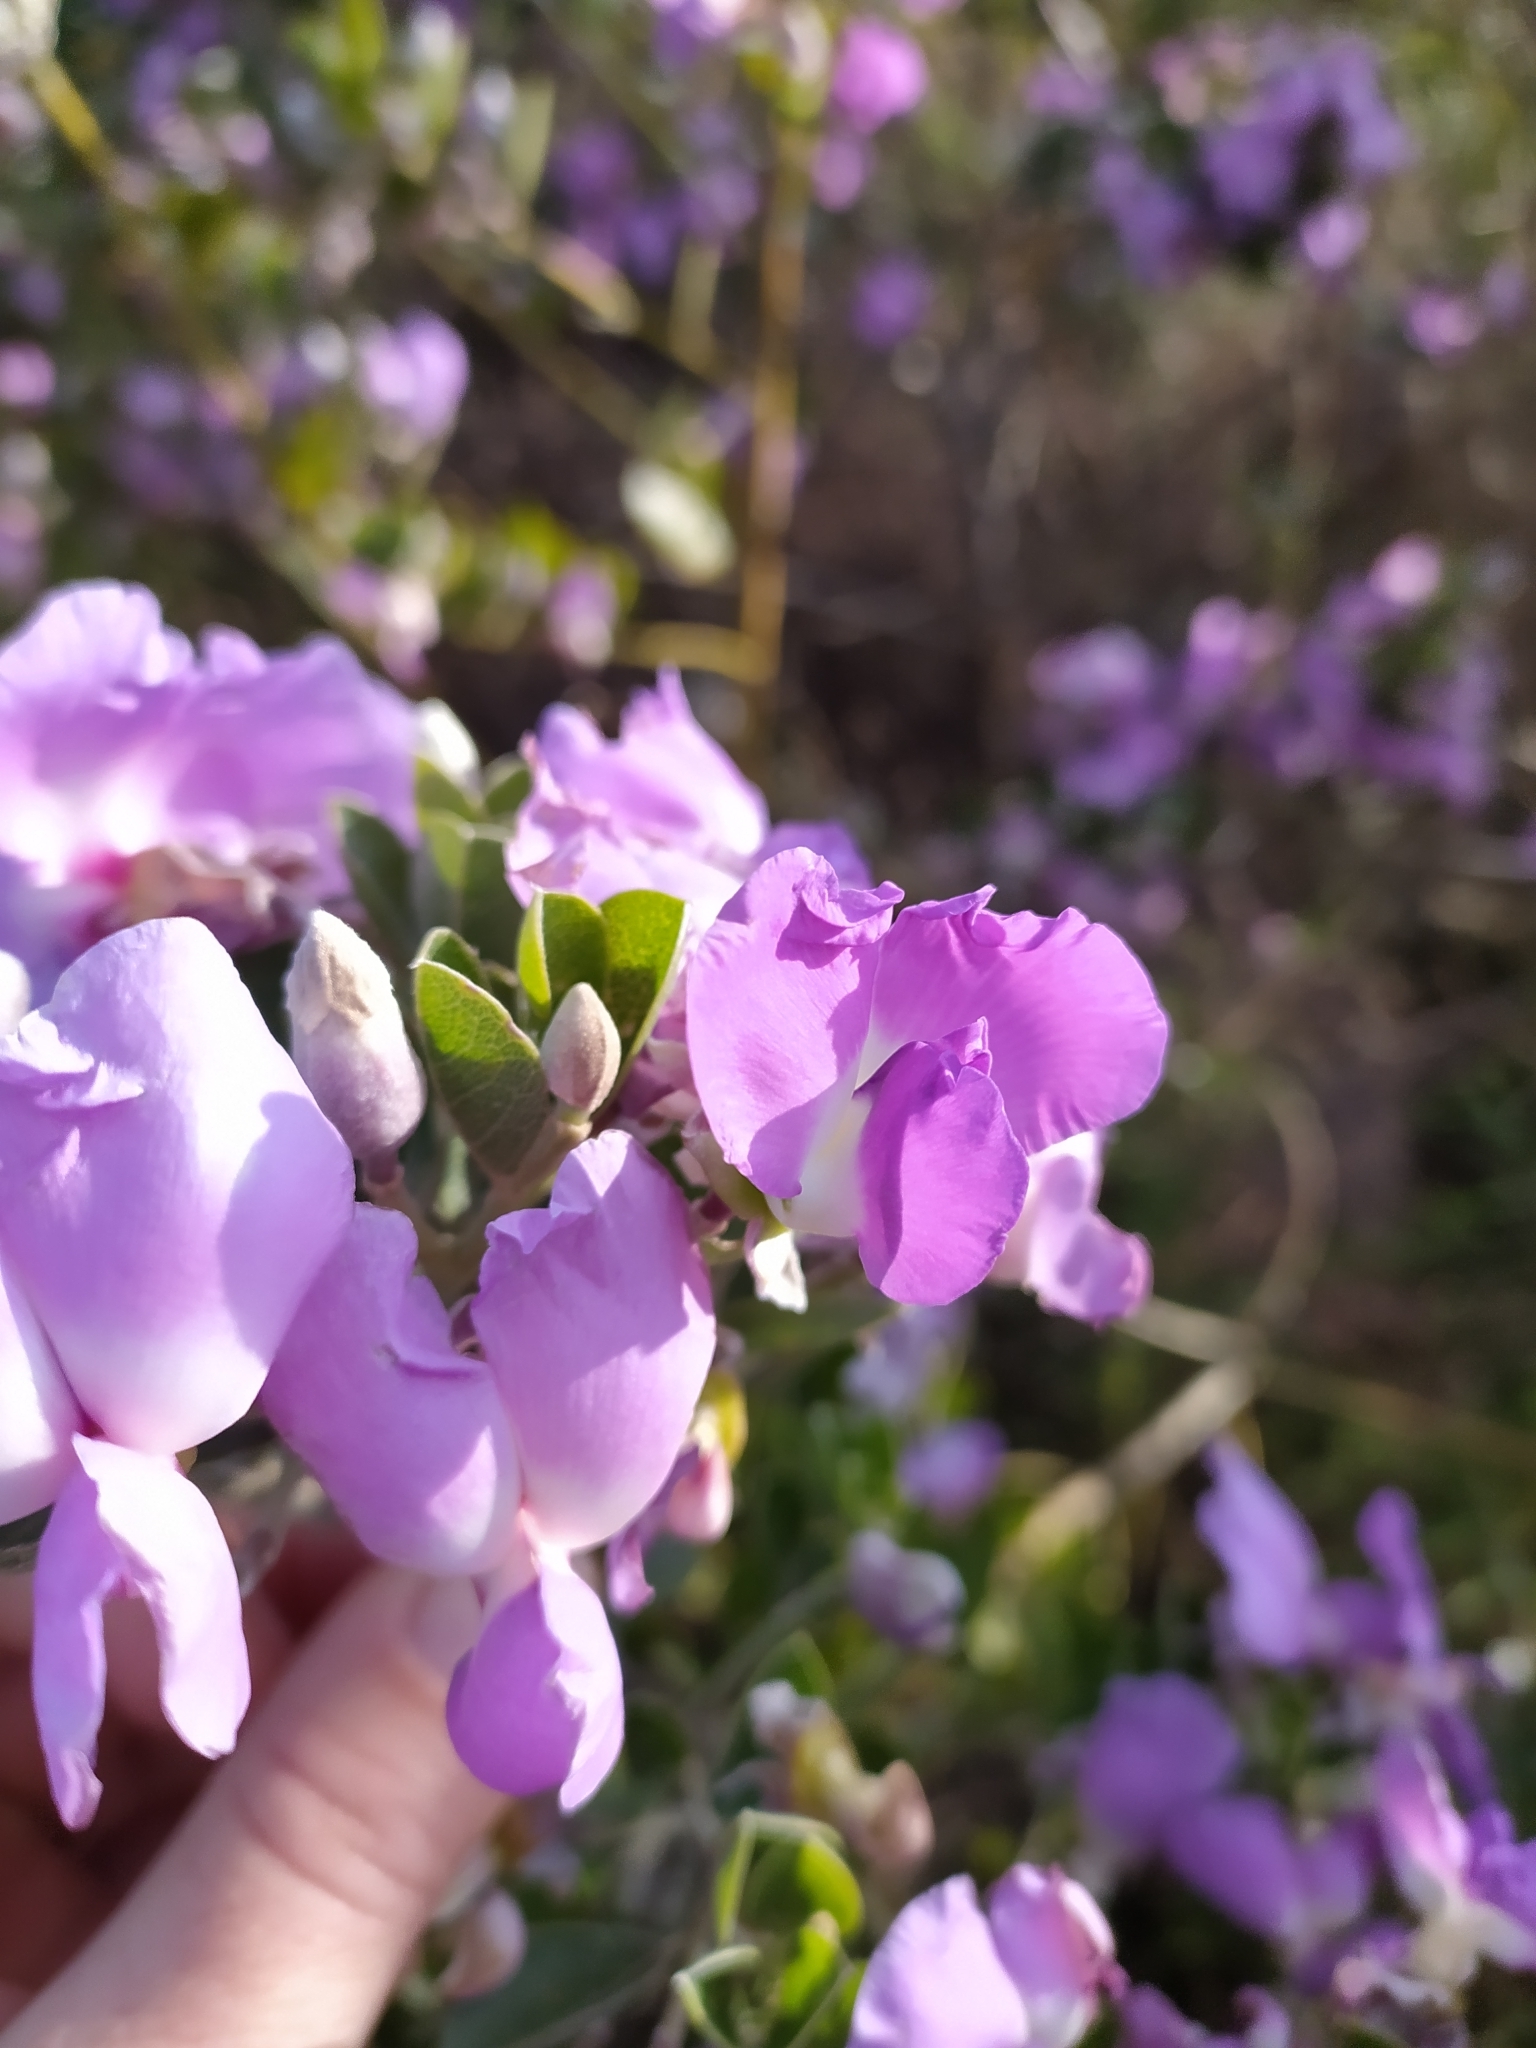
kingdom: Plantae
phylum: Tracheophyta
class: Magnoliopsida
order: Fabales
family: Fabaceae
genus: Podalyria
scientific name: Podalyria calyptrata
